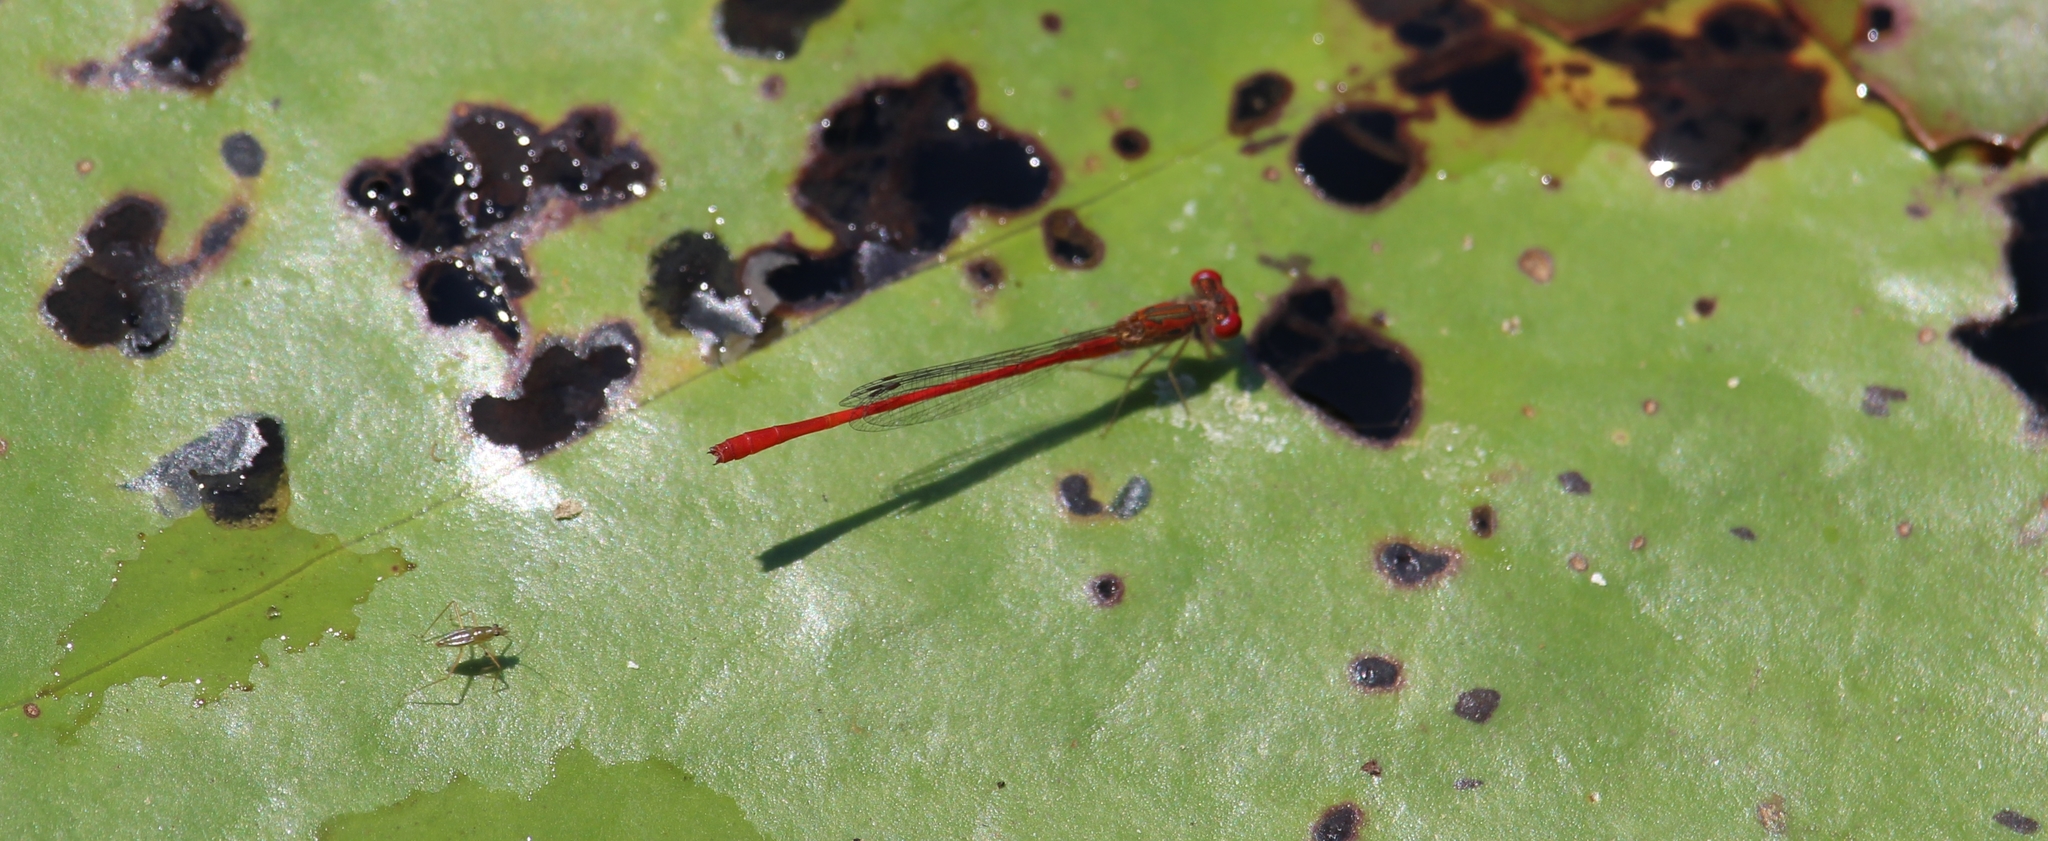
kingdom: Animalia
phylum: Arthropoda
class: Insecta
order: Odonata
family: Coenagrionidae
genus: Telebasis
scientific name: Telebasis salva
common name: Desert firetail
